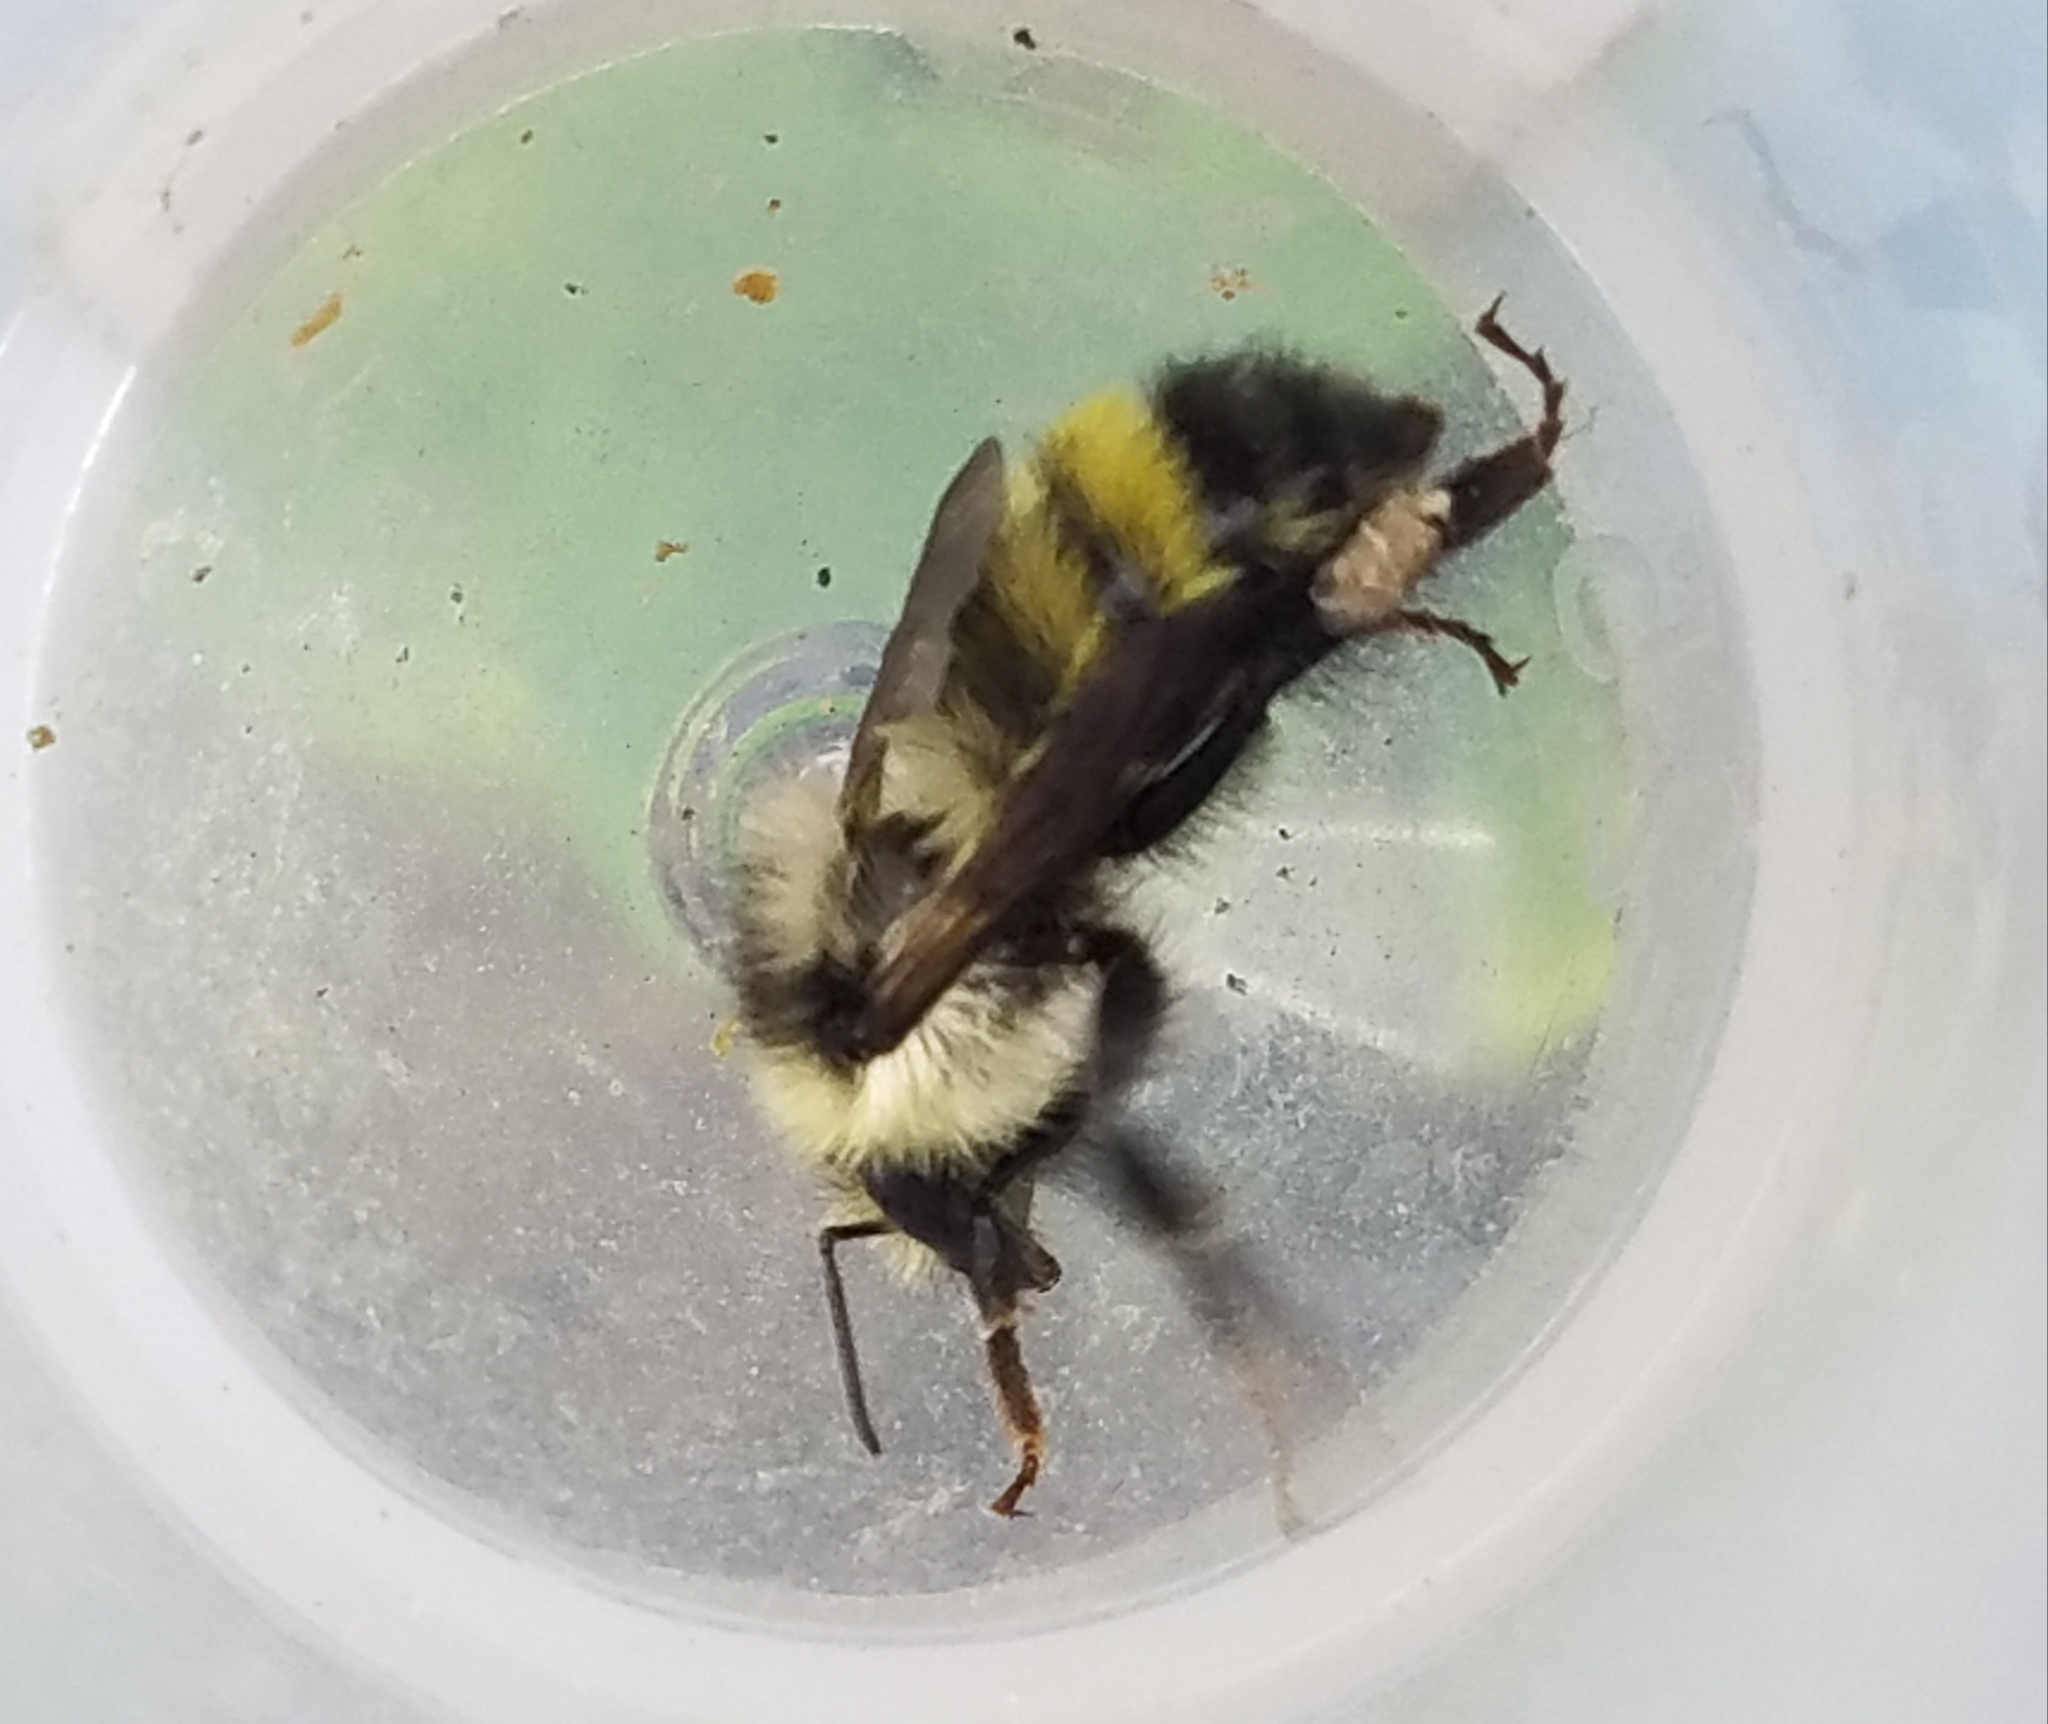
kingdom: Animalia
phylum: Arthropoda
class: Insecta
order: Hymenoptera
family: Apidae
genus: Bombus
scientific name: Bombus vandykei
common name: Van dyke bumble bee
